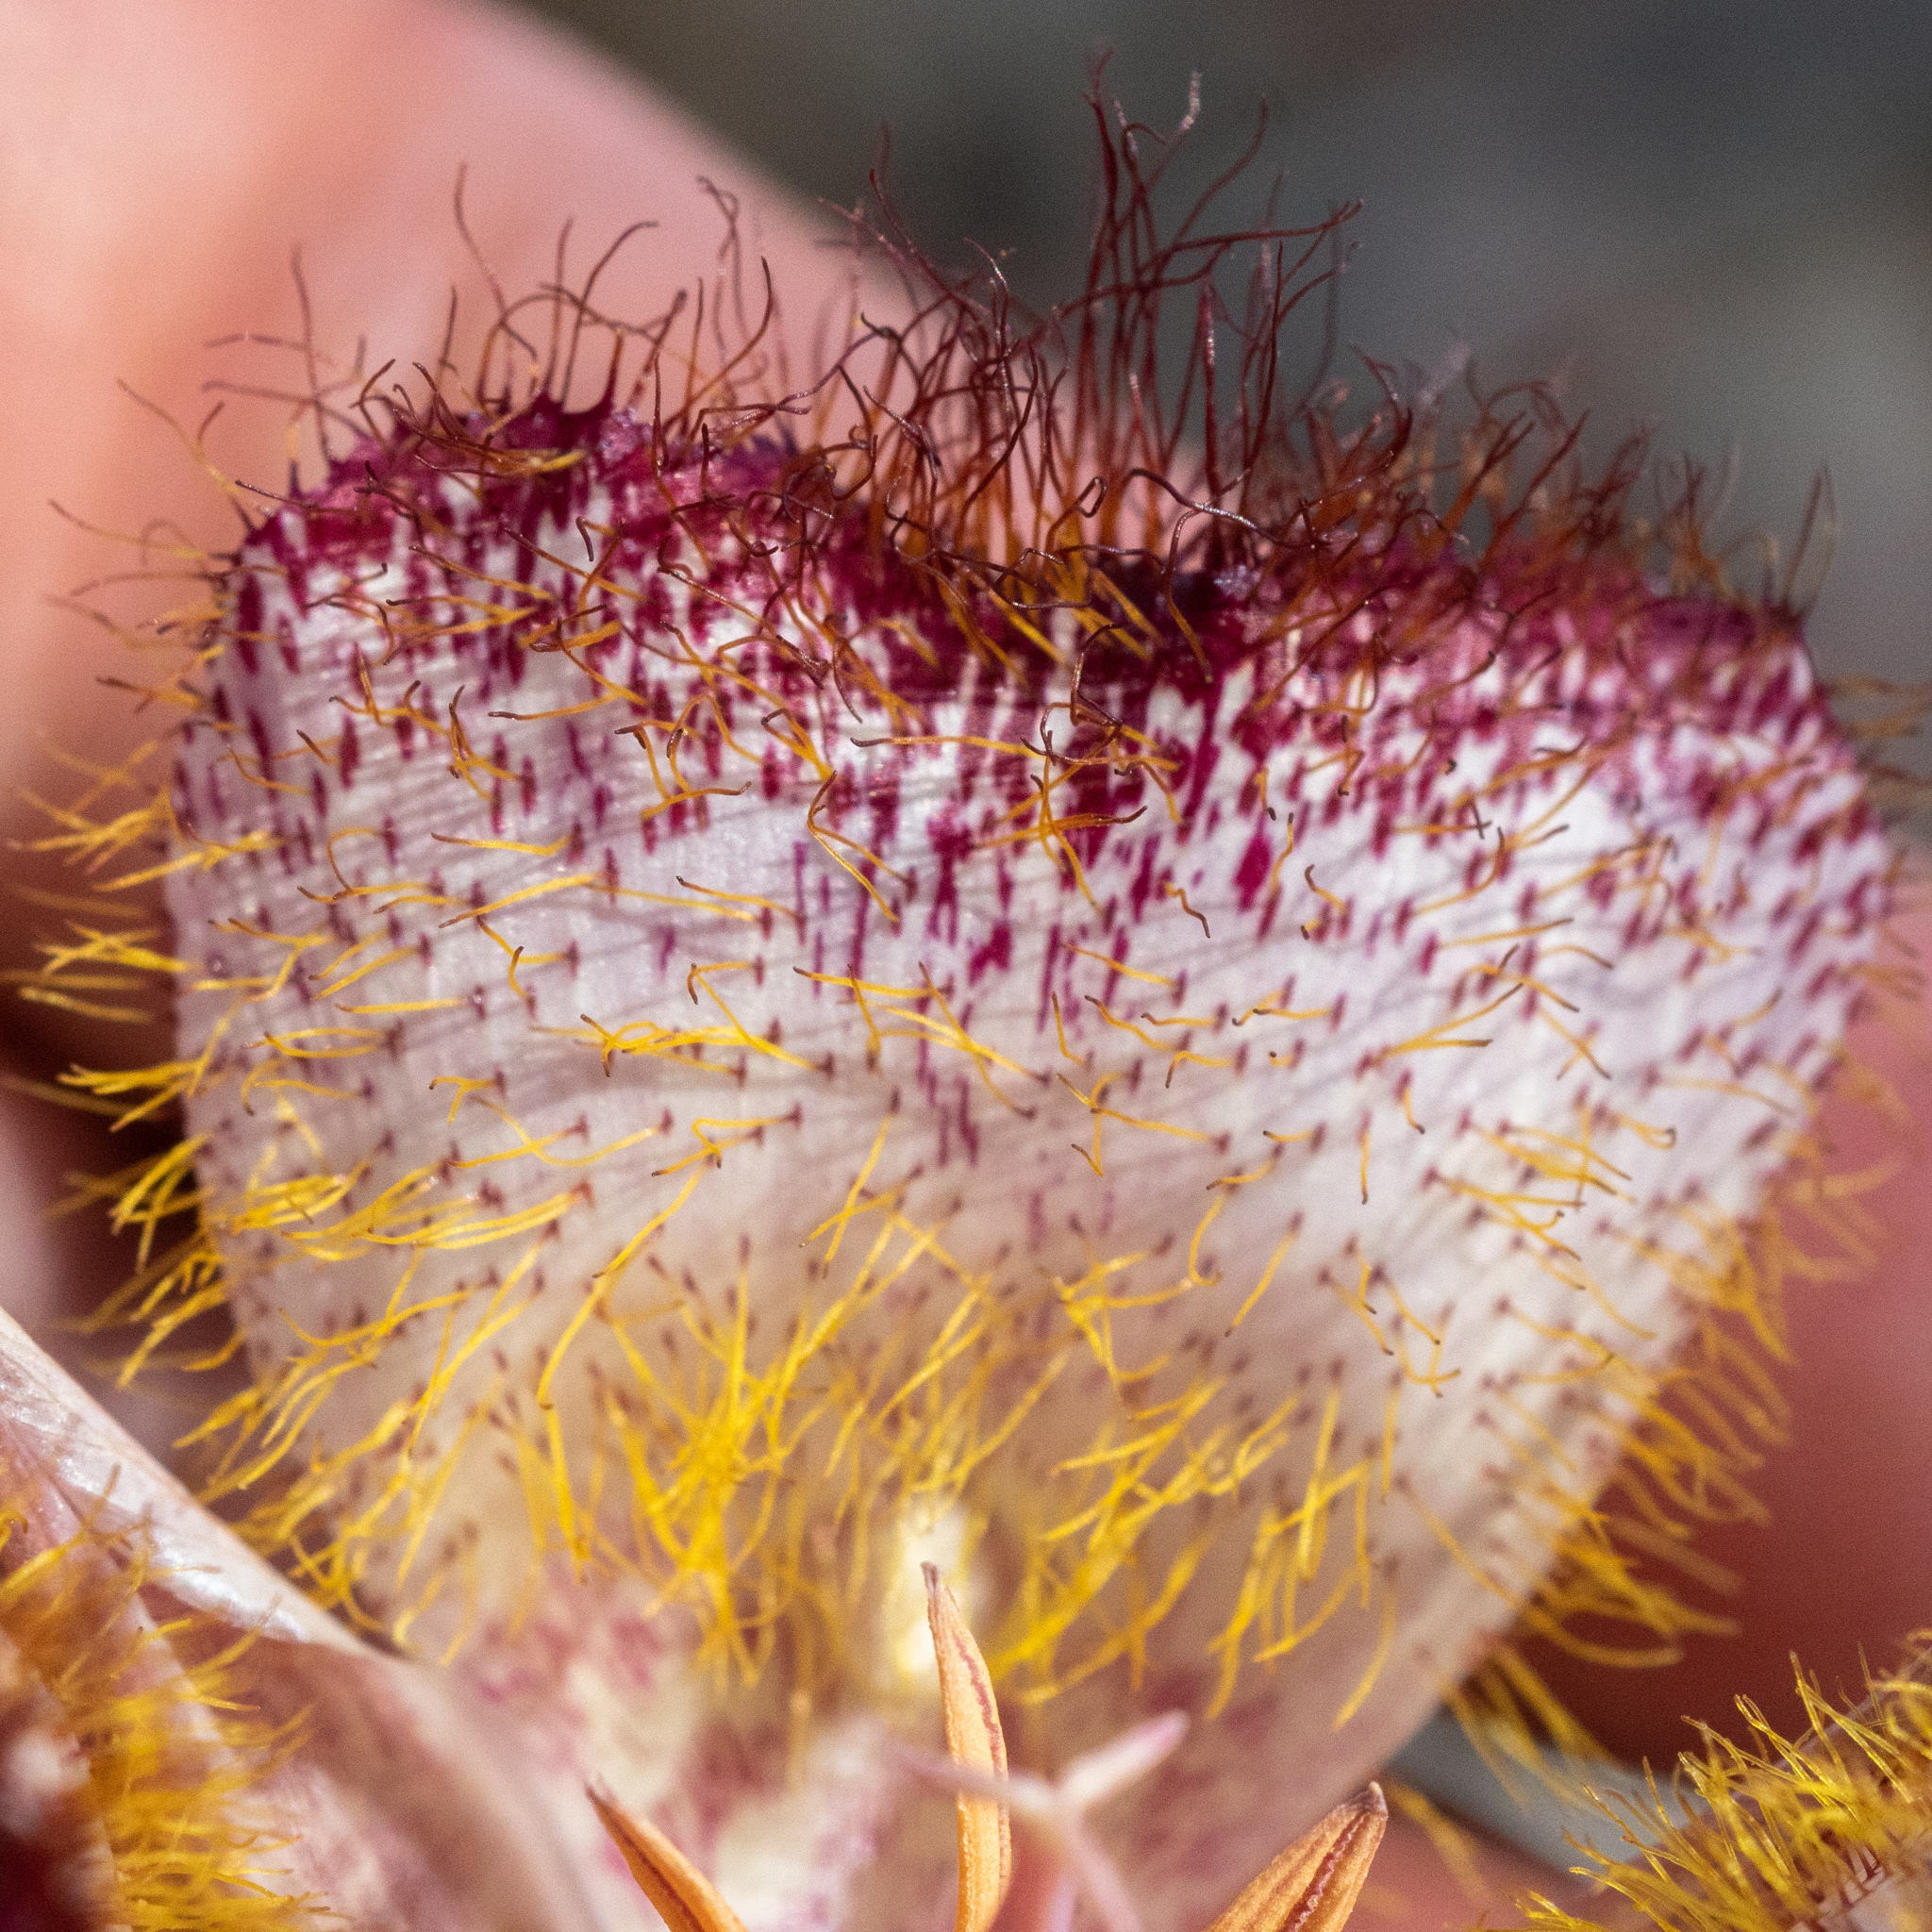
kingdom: Plantae
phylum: Tracheophyta
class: Liliopsida
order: Liliales
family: Liliaceae
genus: Calochortus
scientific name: Calochortus fimbriatus
